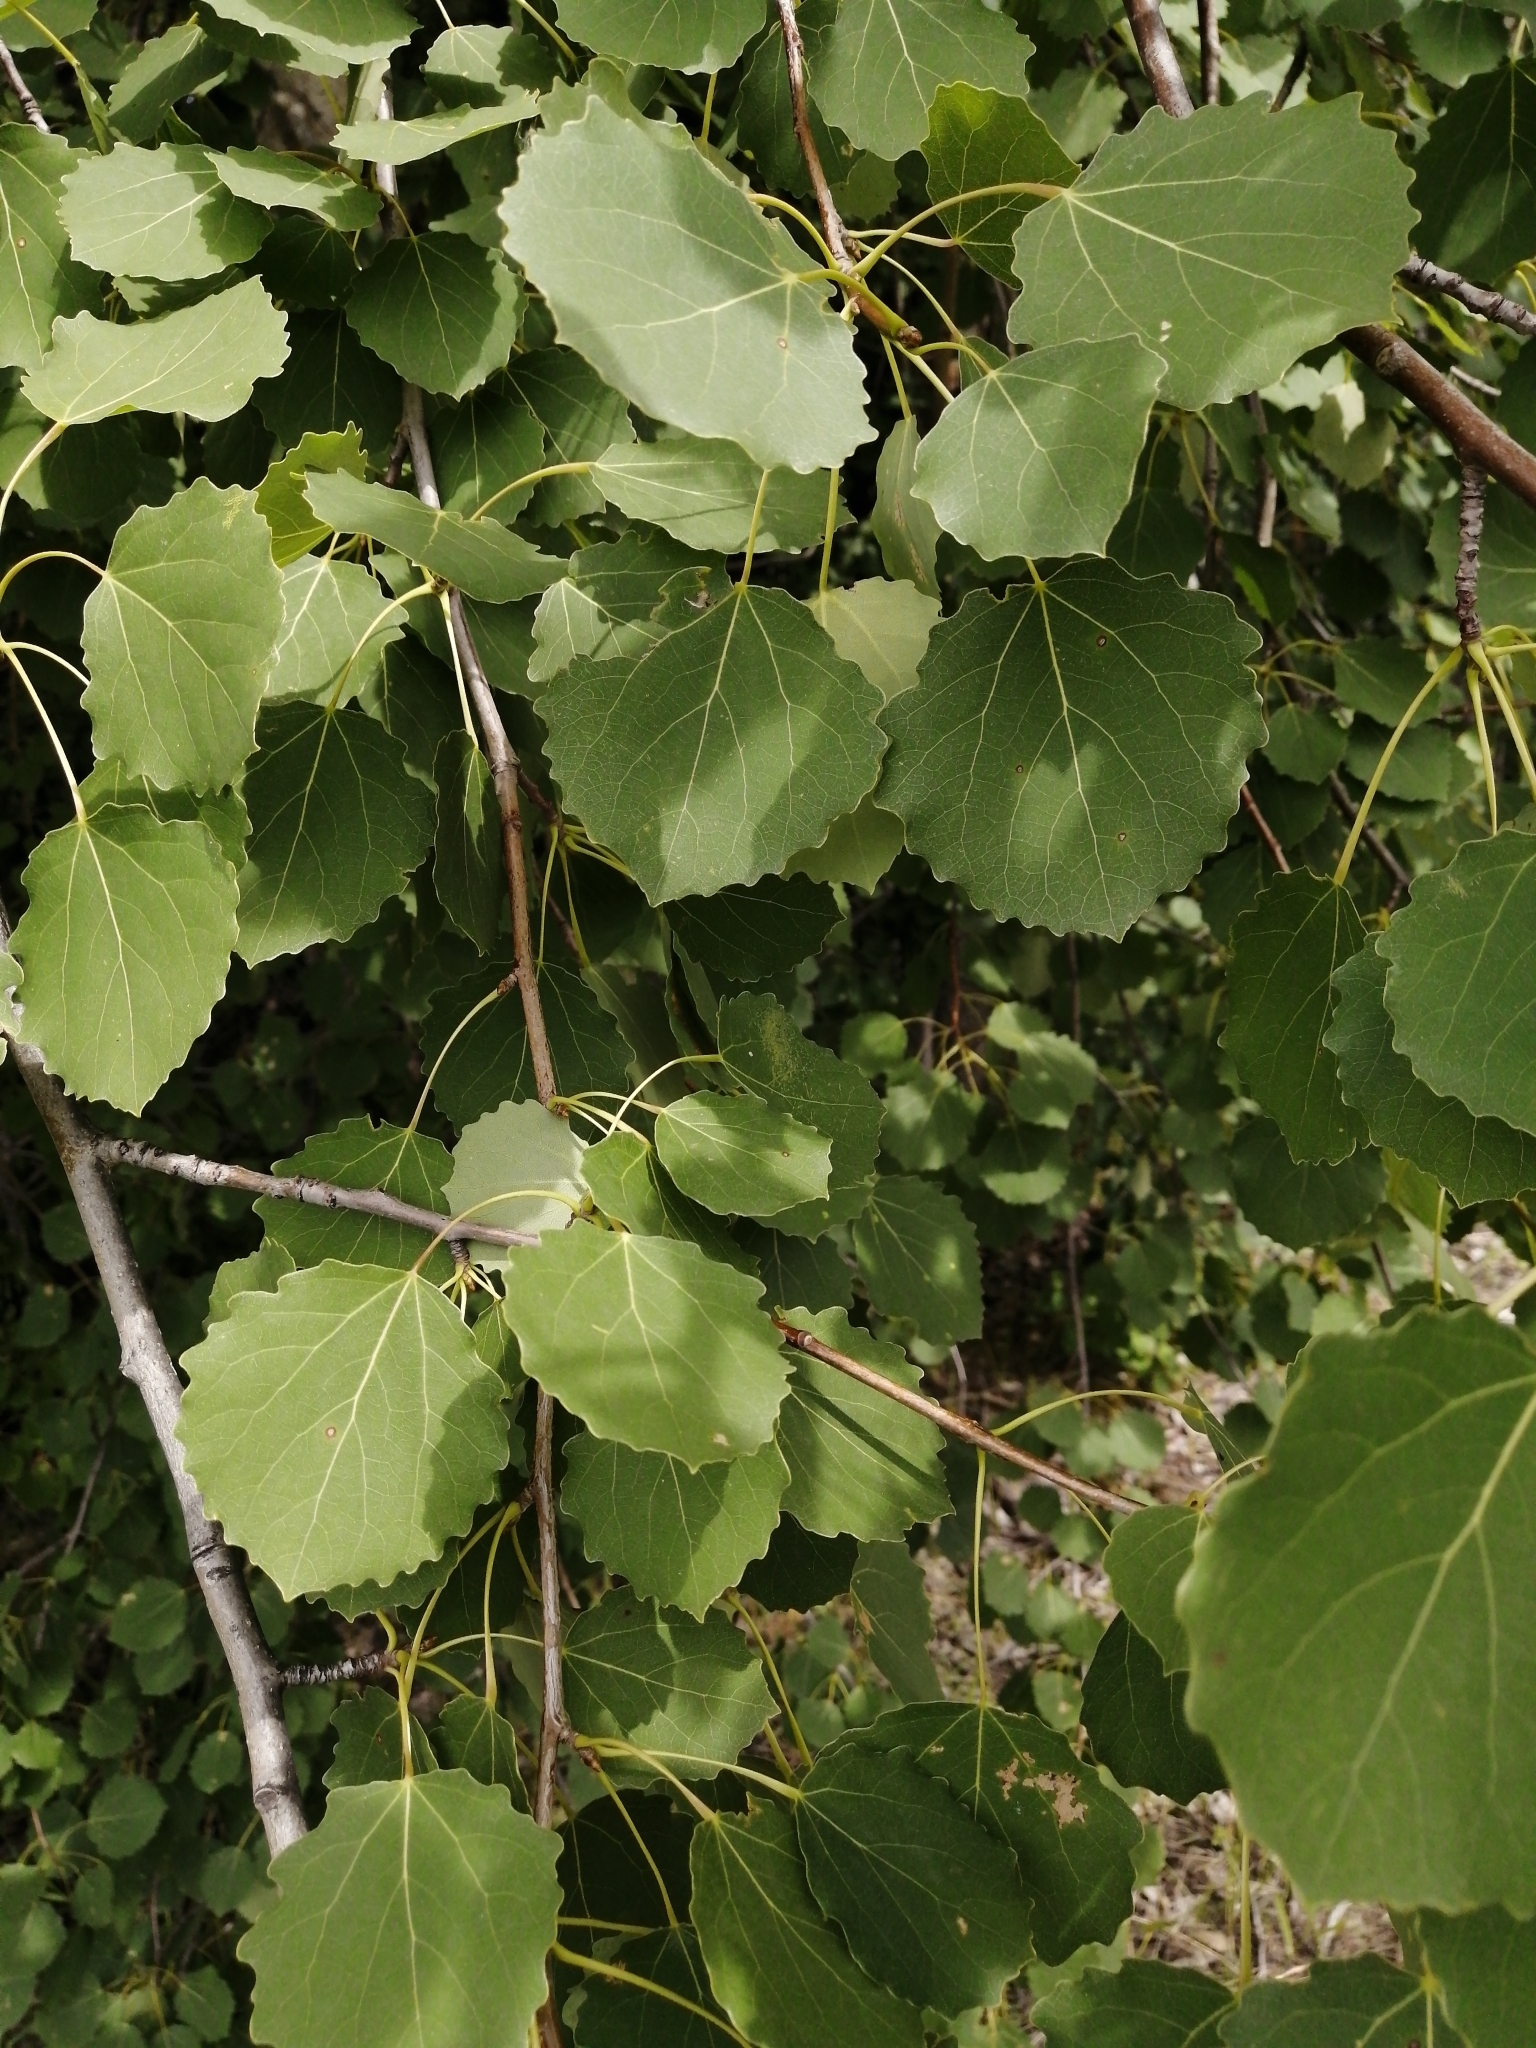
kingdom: Plantae
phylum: Tracheophyta
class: Magnoliopsida
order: Malpighiales
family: Salicaceae
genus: Populus
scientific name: Populus tremula
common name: European aspen
